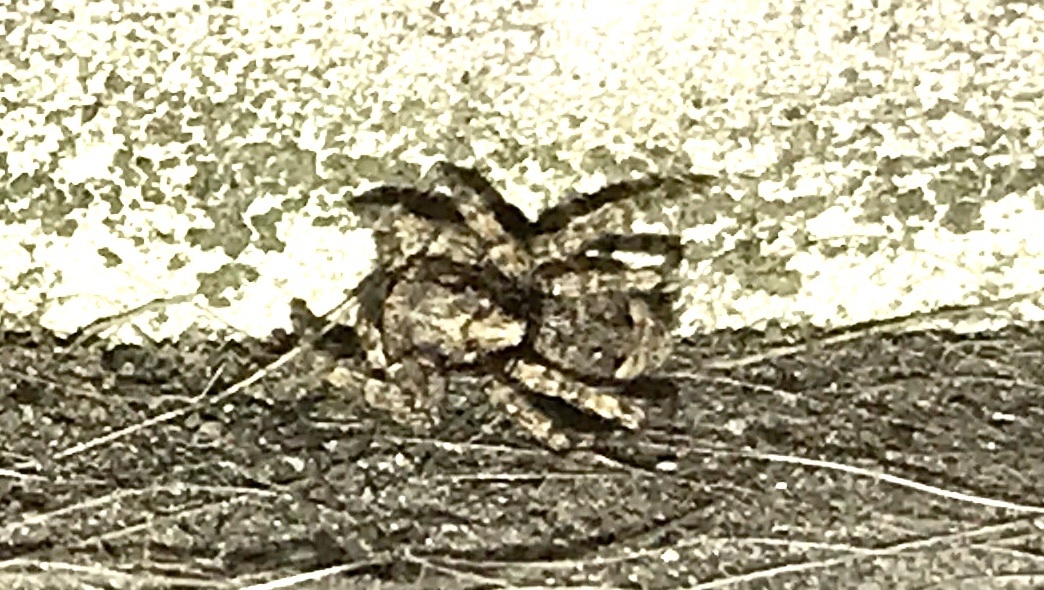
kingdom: Animalia
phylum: Arthropoda
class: Arachnida
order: Araneae
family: Salticidae
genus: Attulus
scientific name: Attulus fasciger
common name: Asiatic wall jumping spider
